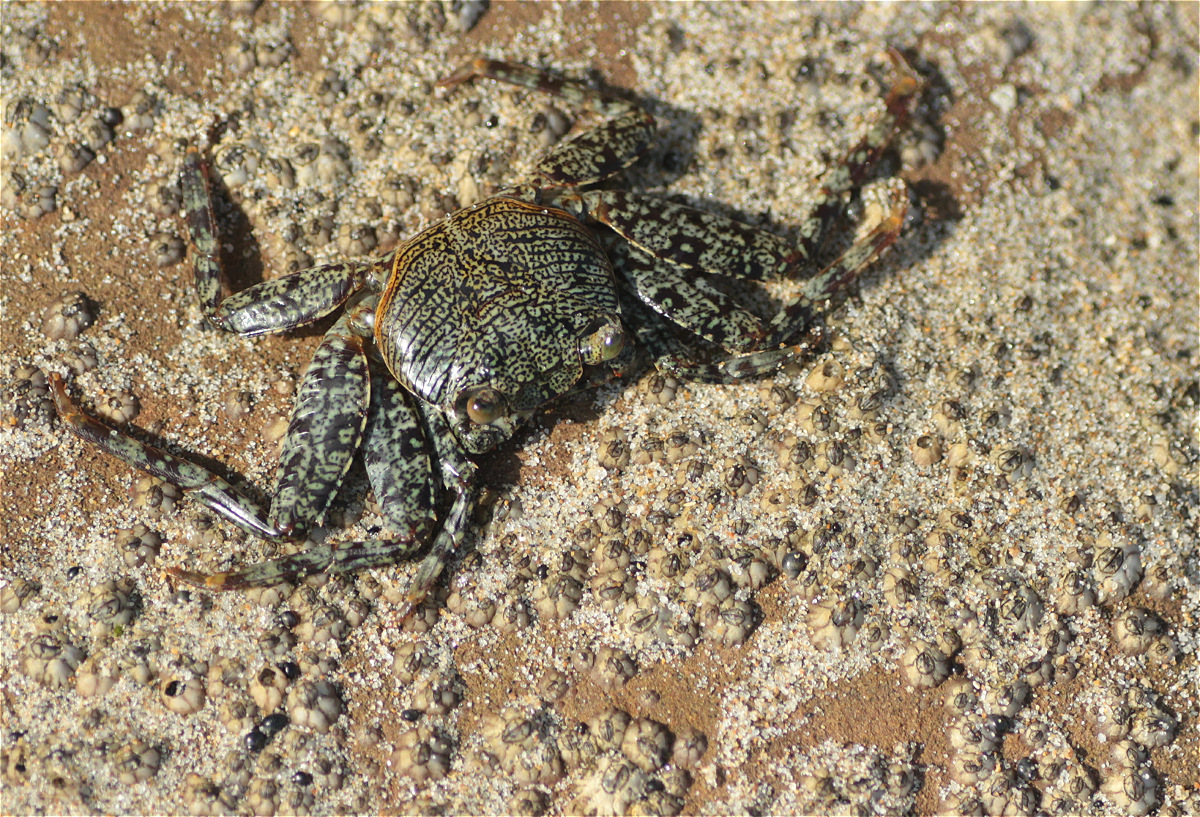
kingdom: Animalia
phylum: Arthropoda
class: Malacostraca
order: Decapoda
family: Grapsidae
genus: Grapsus
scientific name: Grapsus grapsus
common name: Sally lightfoot
